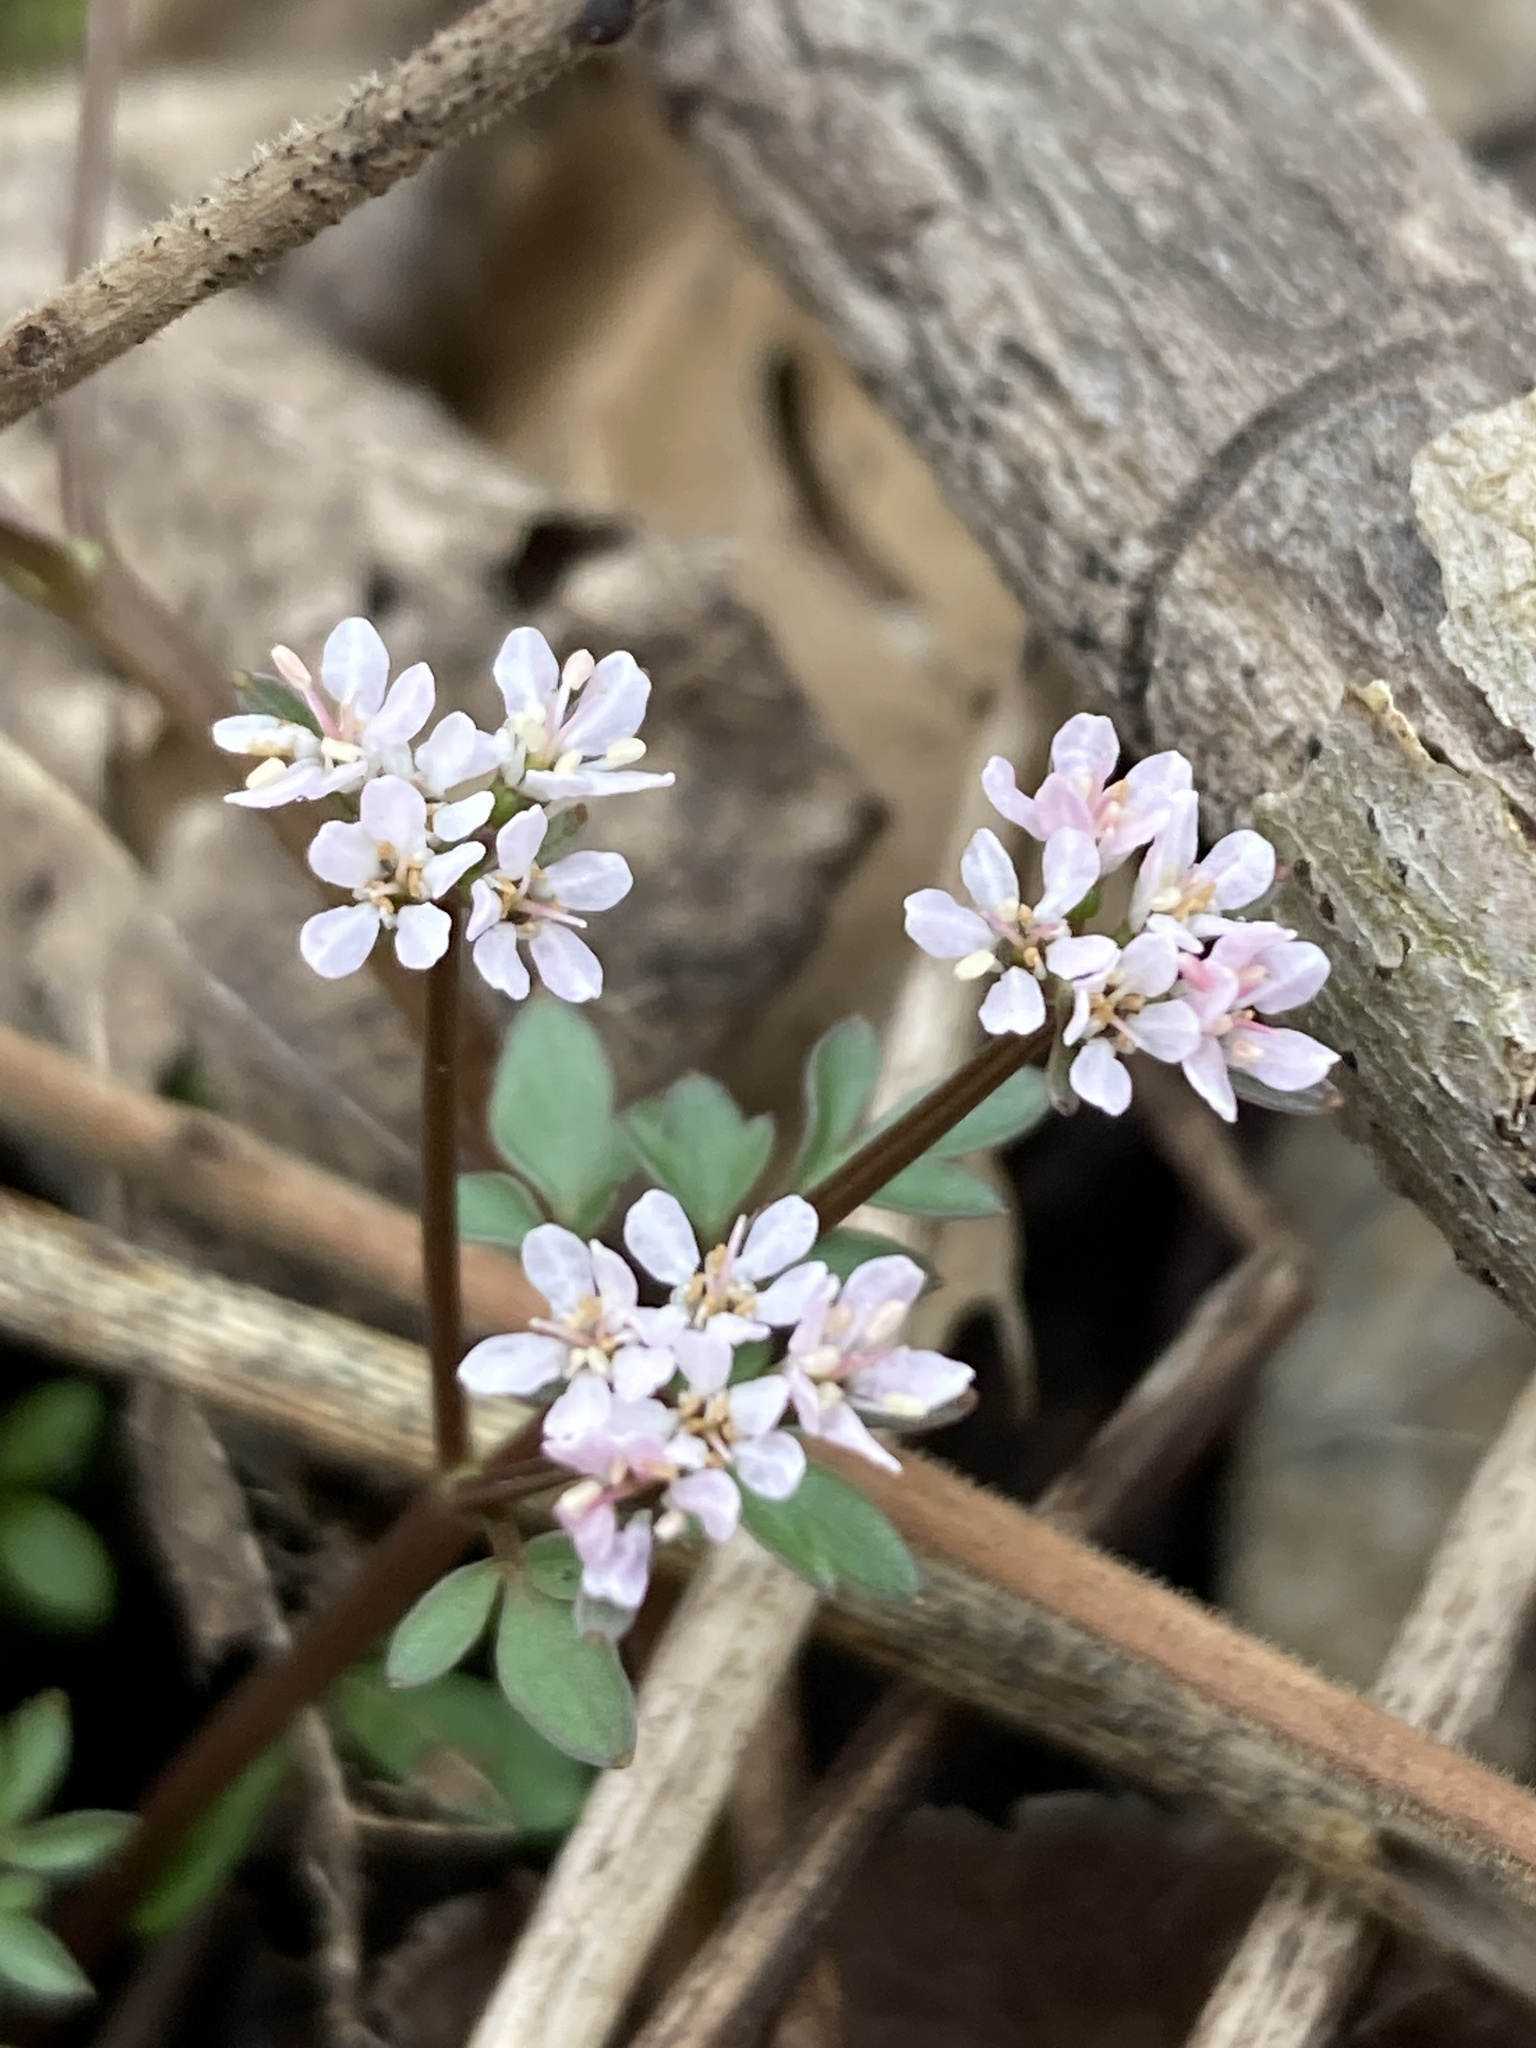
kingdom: Plantae
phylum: Tracheophyta
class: Magnoliopsida
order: Apiales
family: Apiaceae
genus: Erigenia
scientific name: Erigenia bulbosa
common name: Pepper-and-salt
